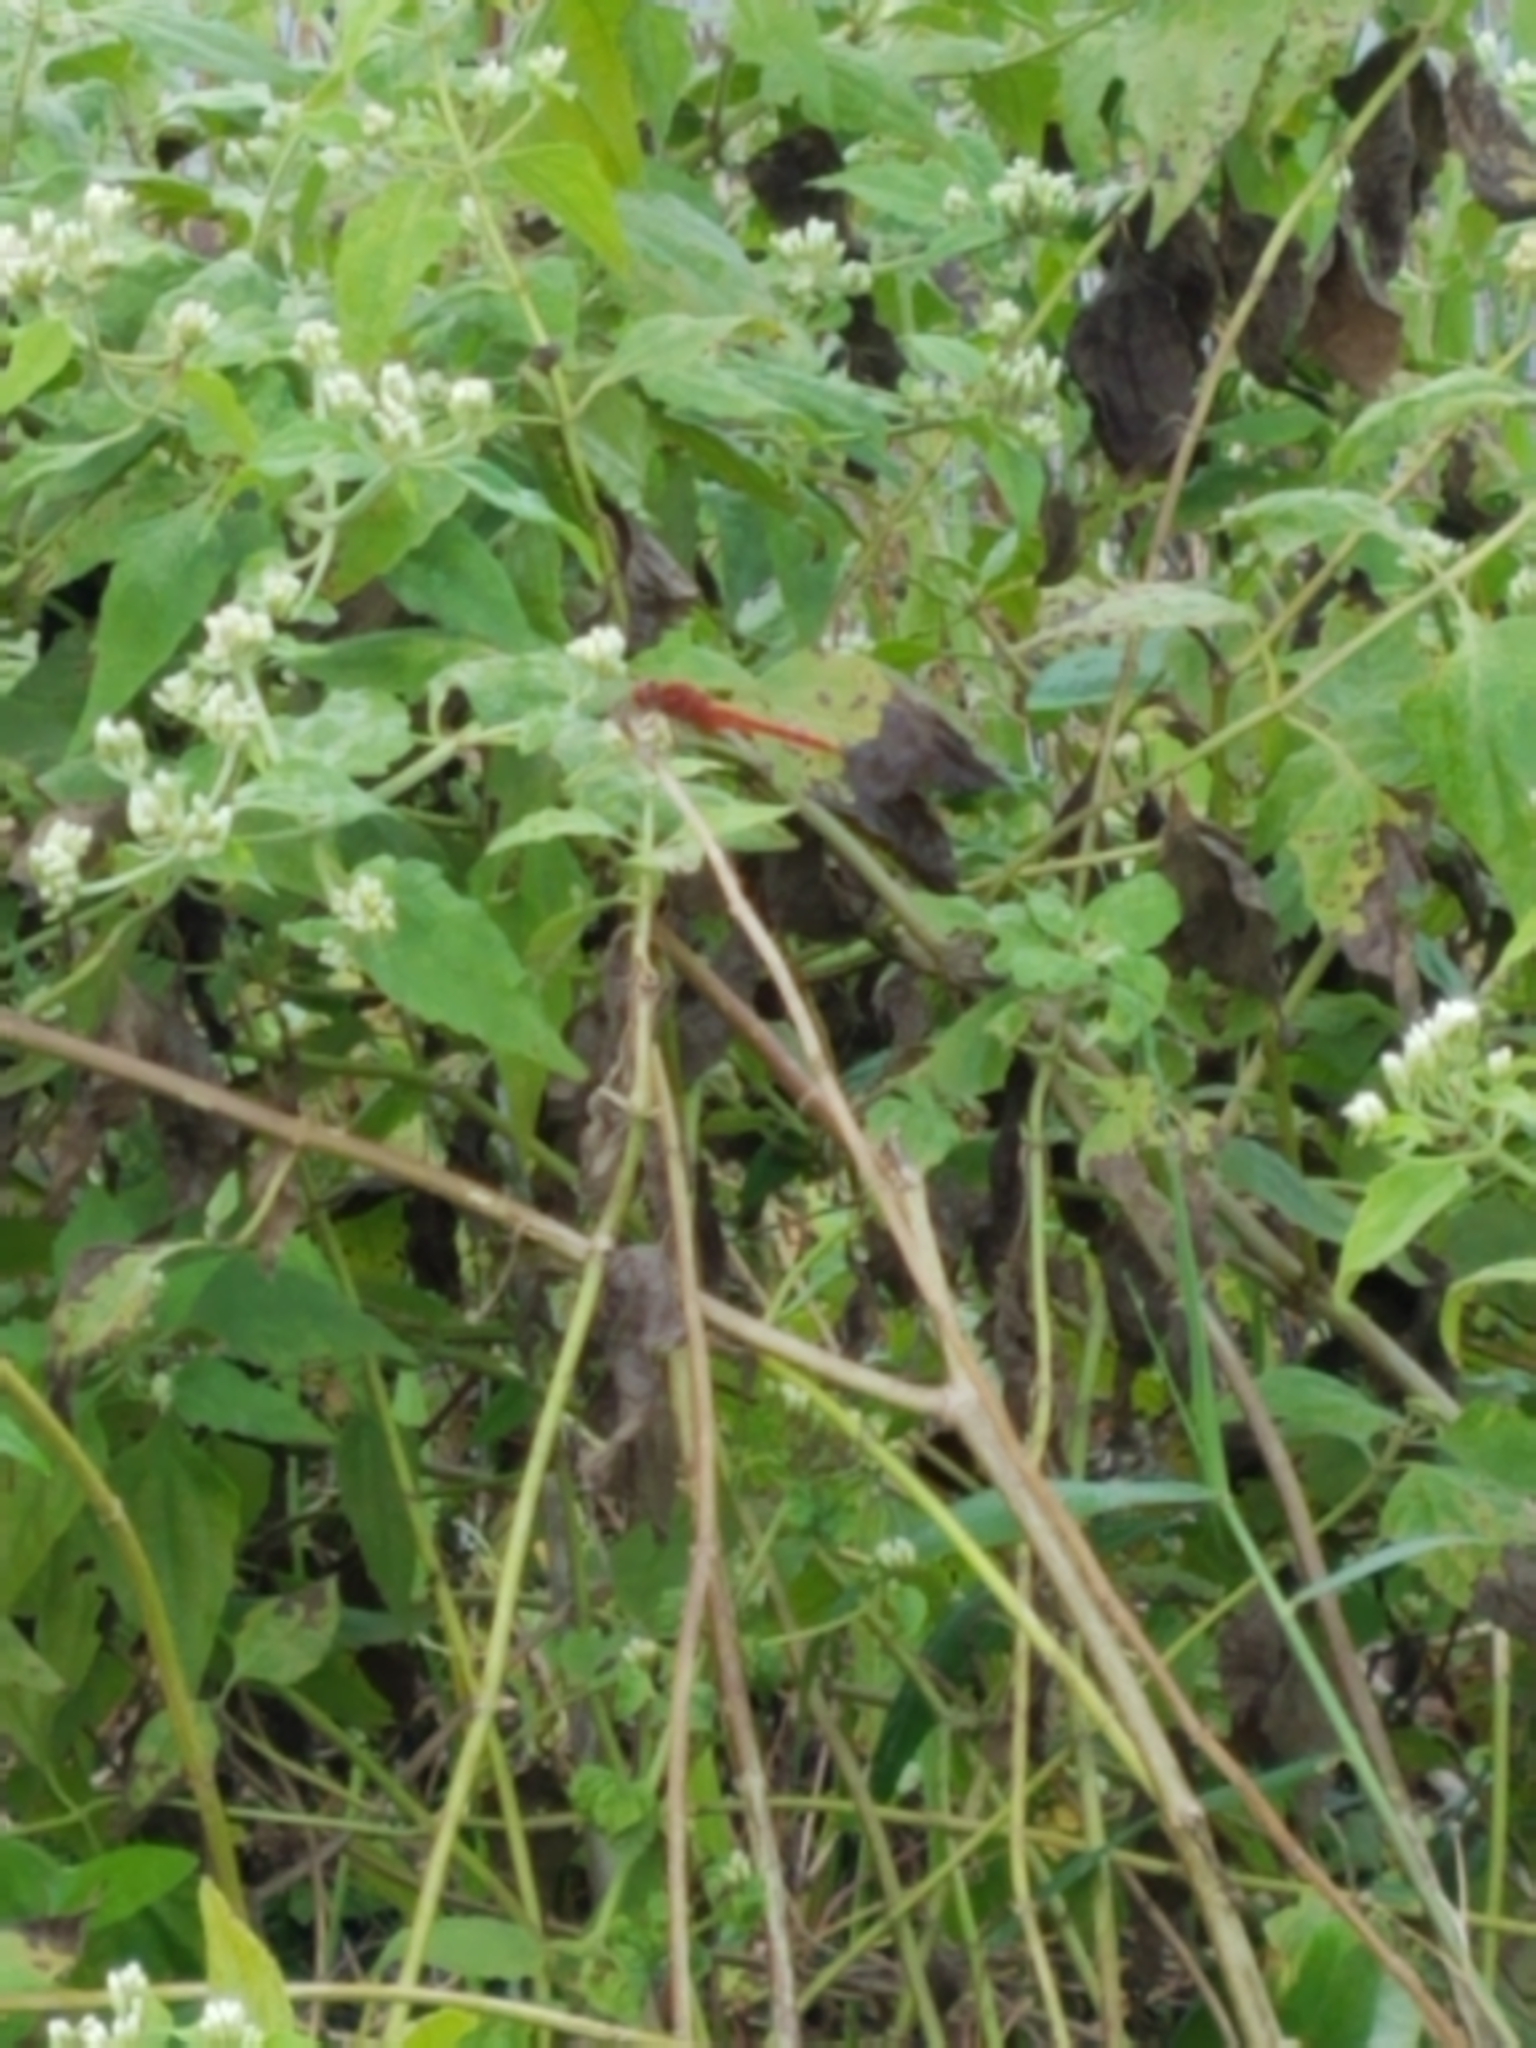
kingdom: Animalia
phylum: Arthropoda
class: Insecta
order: Odonata
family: Libellulidae
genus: Crocothemis
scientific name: Crocothemis servilia
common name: Scarlet skimmer
